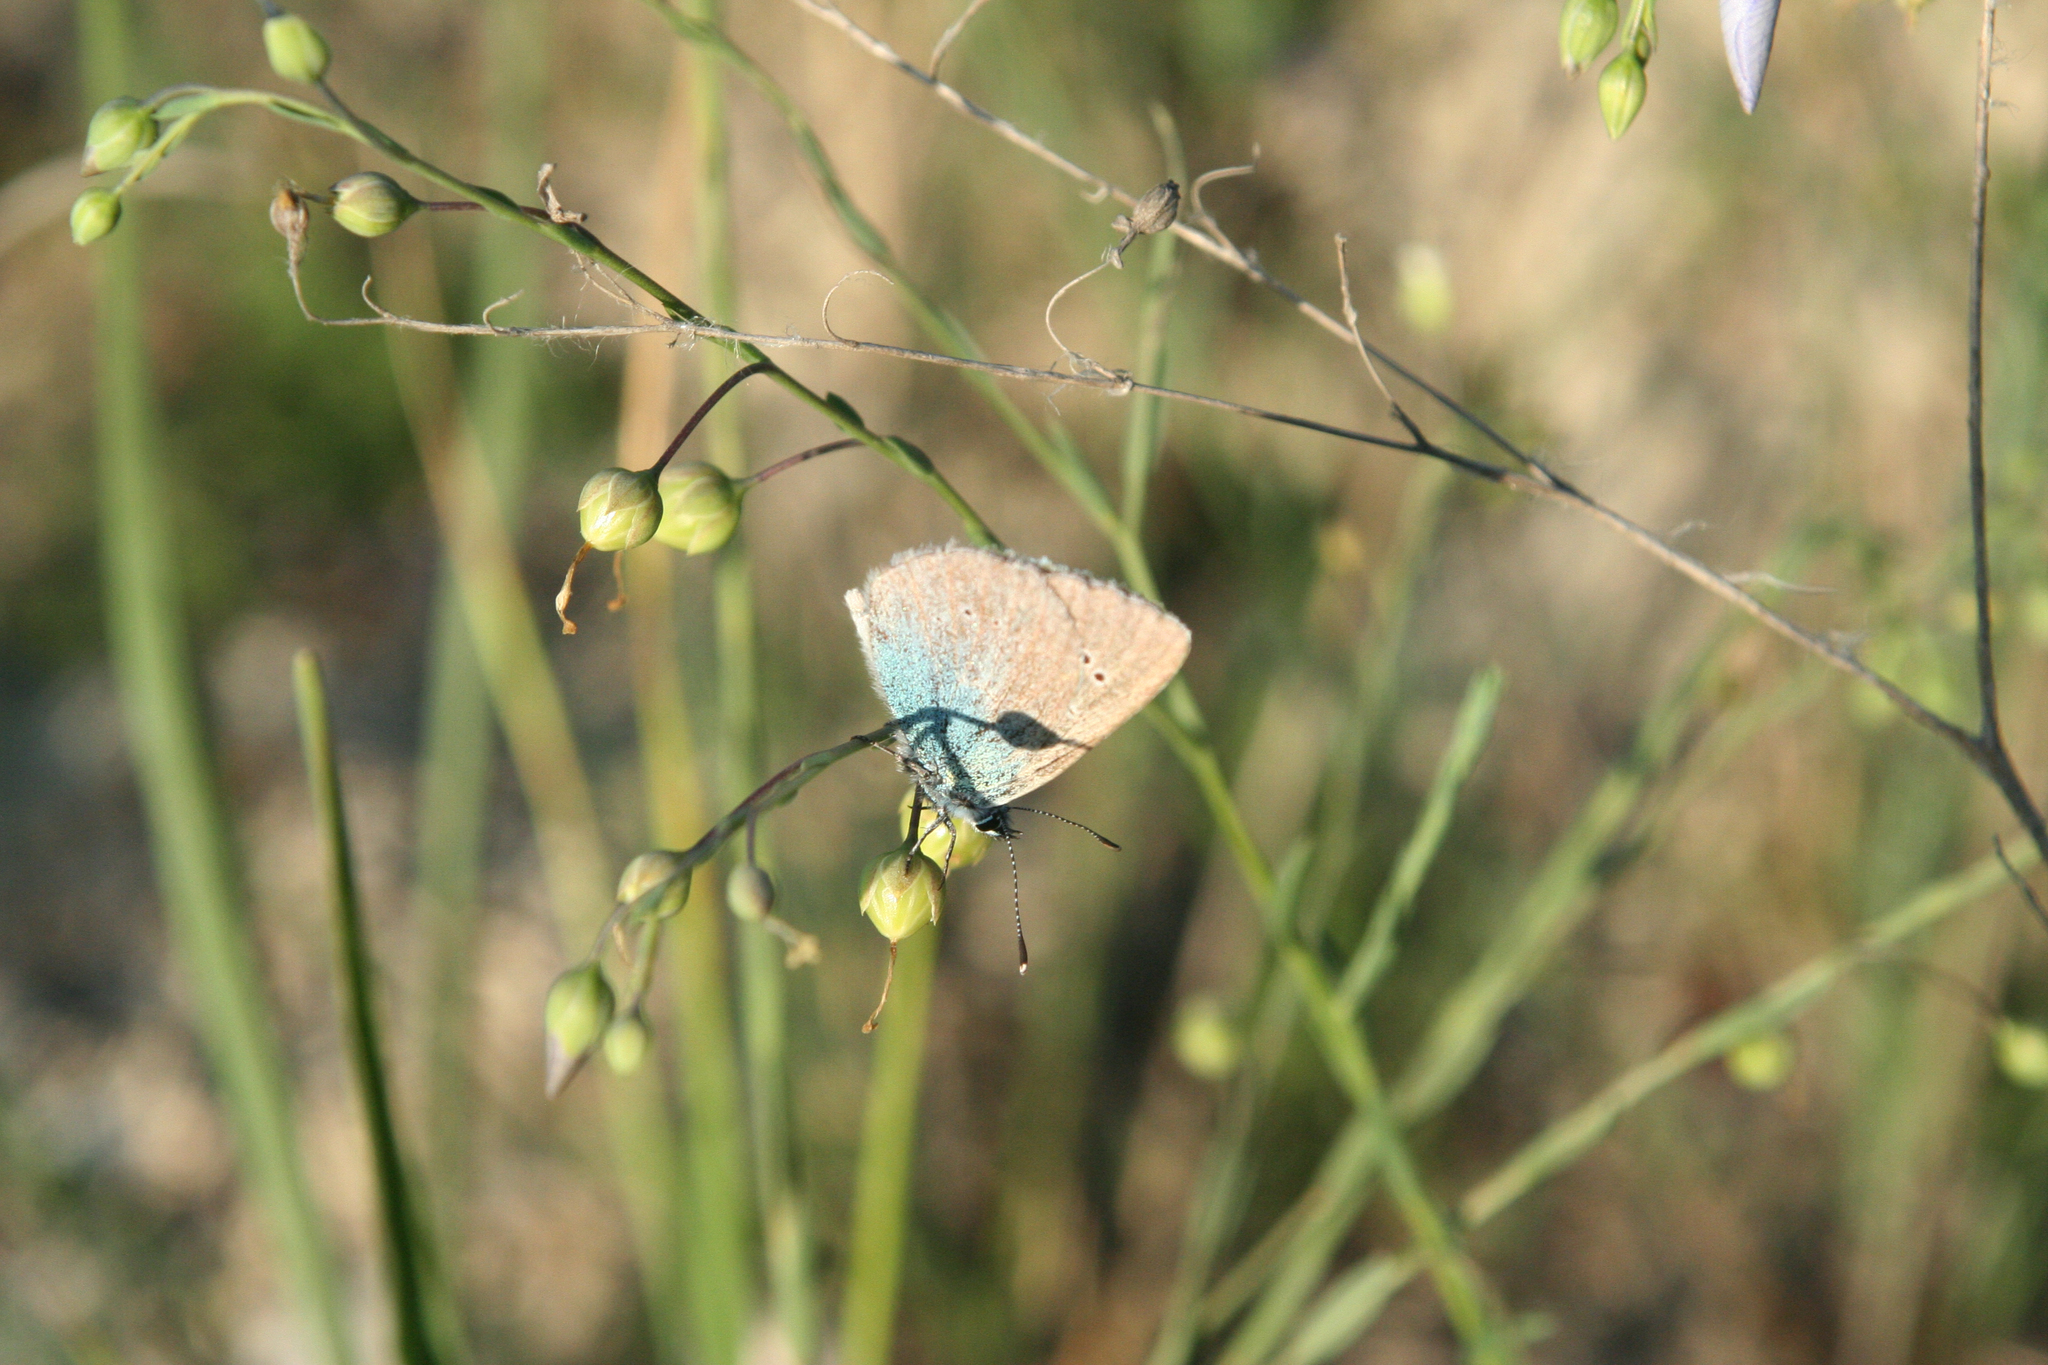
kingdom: Animalia
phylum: Arthropoda
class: Insecta
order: Lepidoptera
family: Lycaenidae
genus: Glaucopsyche
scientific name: Glaucopsyche alexis
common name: Green-underside blue
